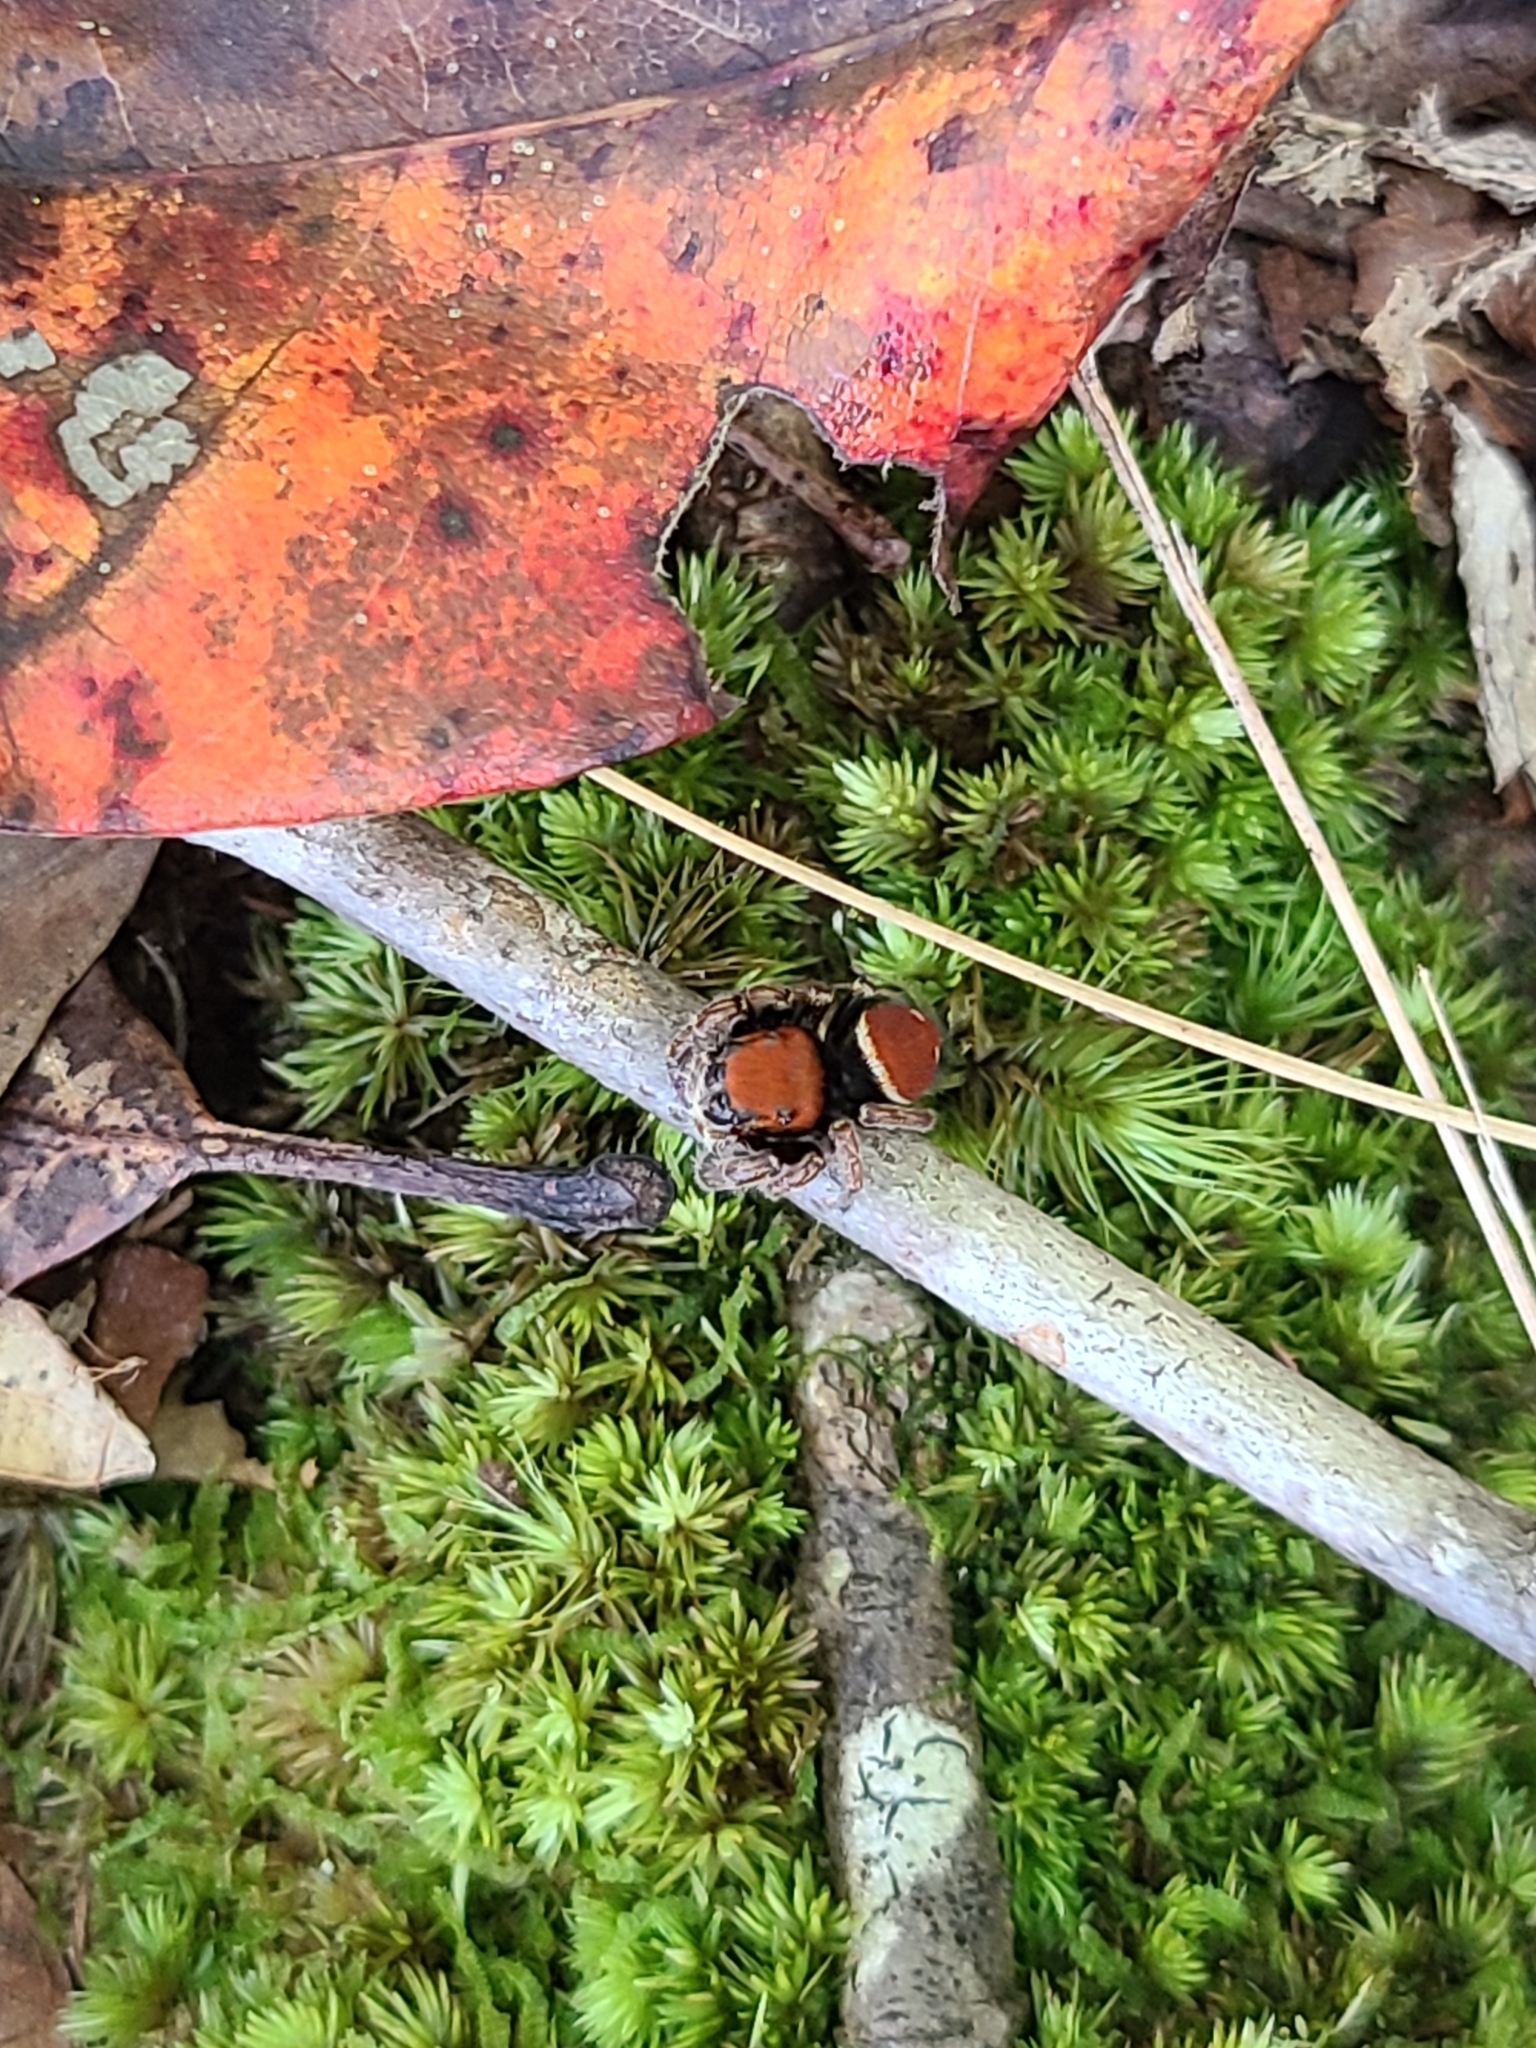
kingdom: Animalia
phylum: Arthropoda
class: Arachnida
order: Araneae
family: Salticidae
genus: Phidippus
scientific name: Phidippus whitmani
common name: Whitman's jumping spider
